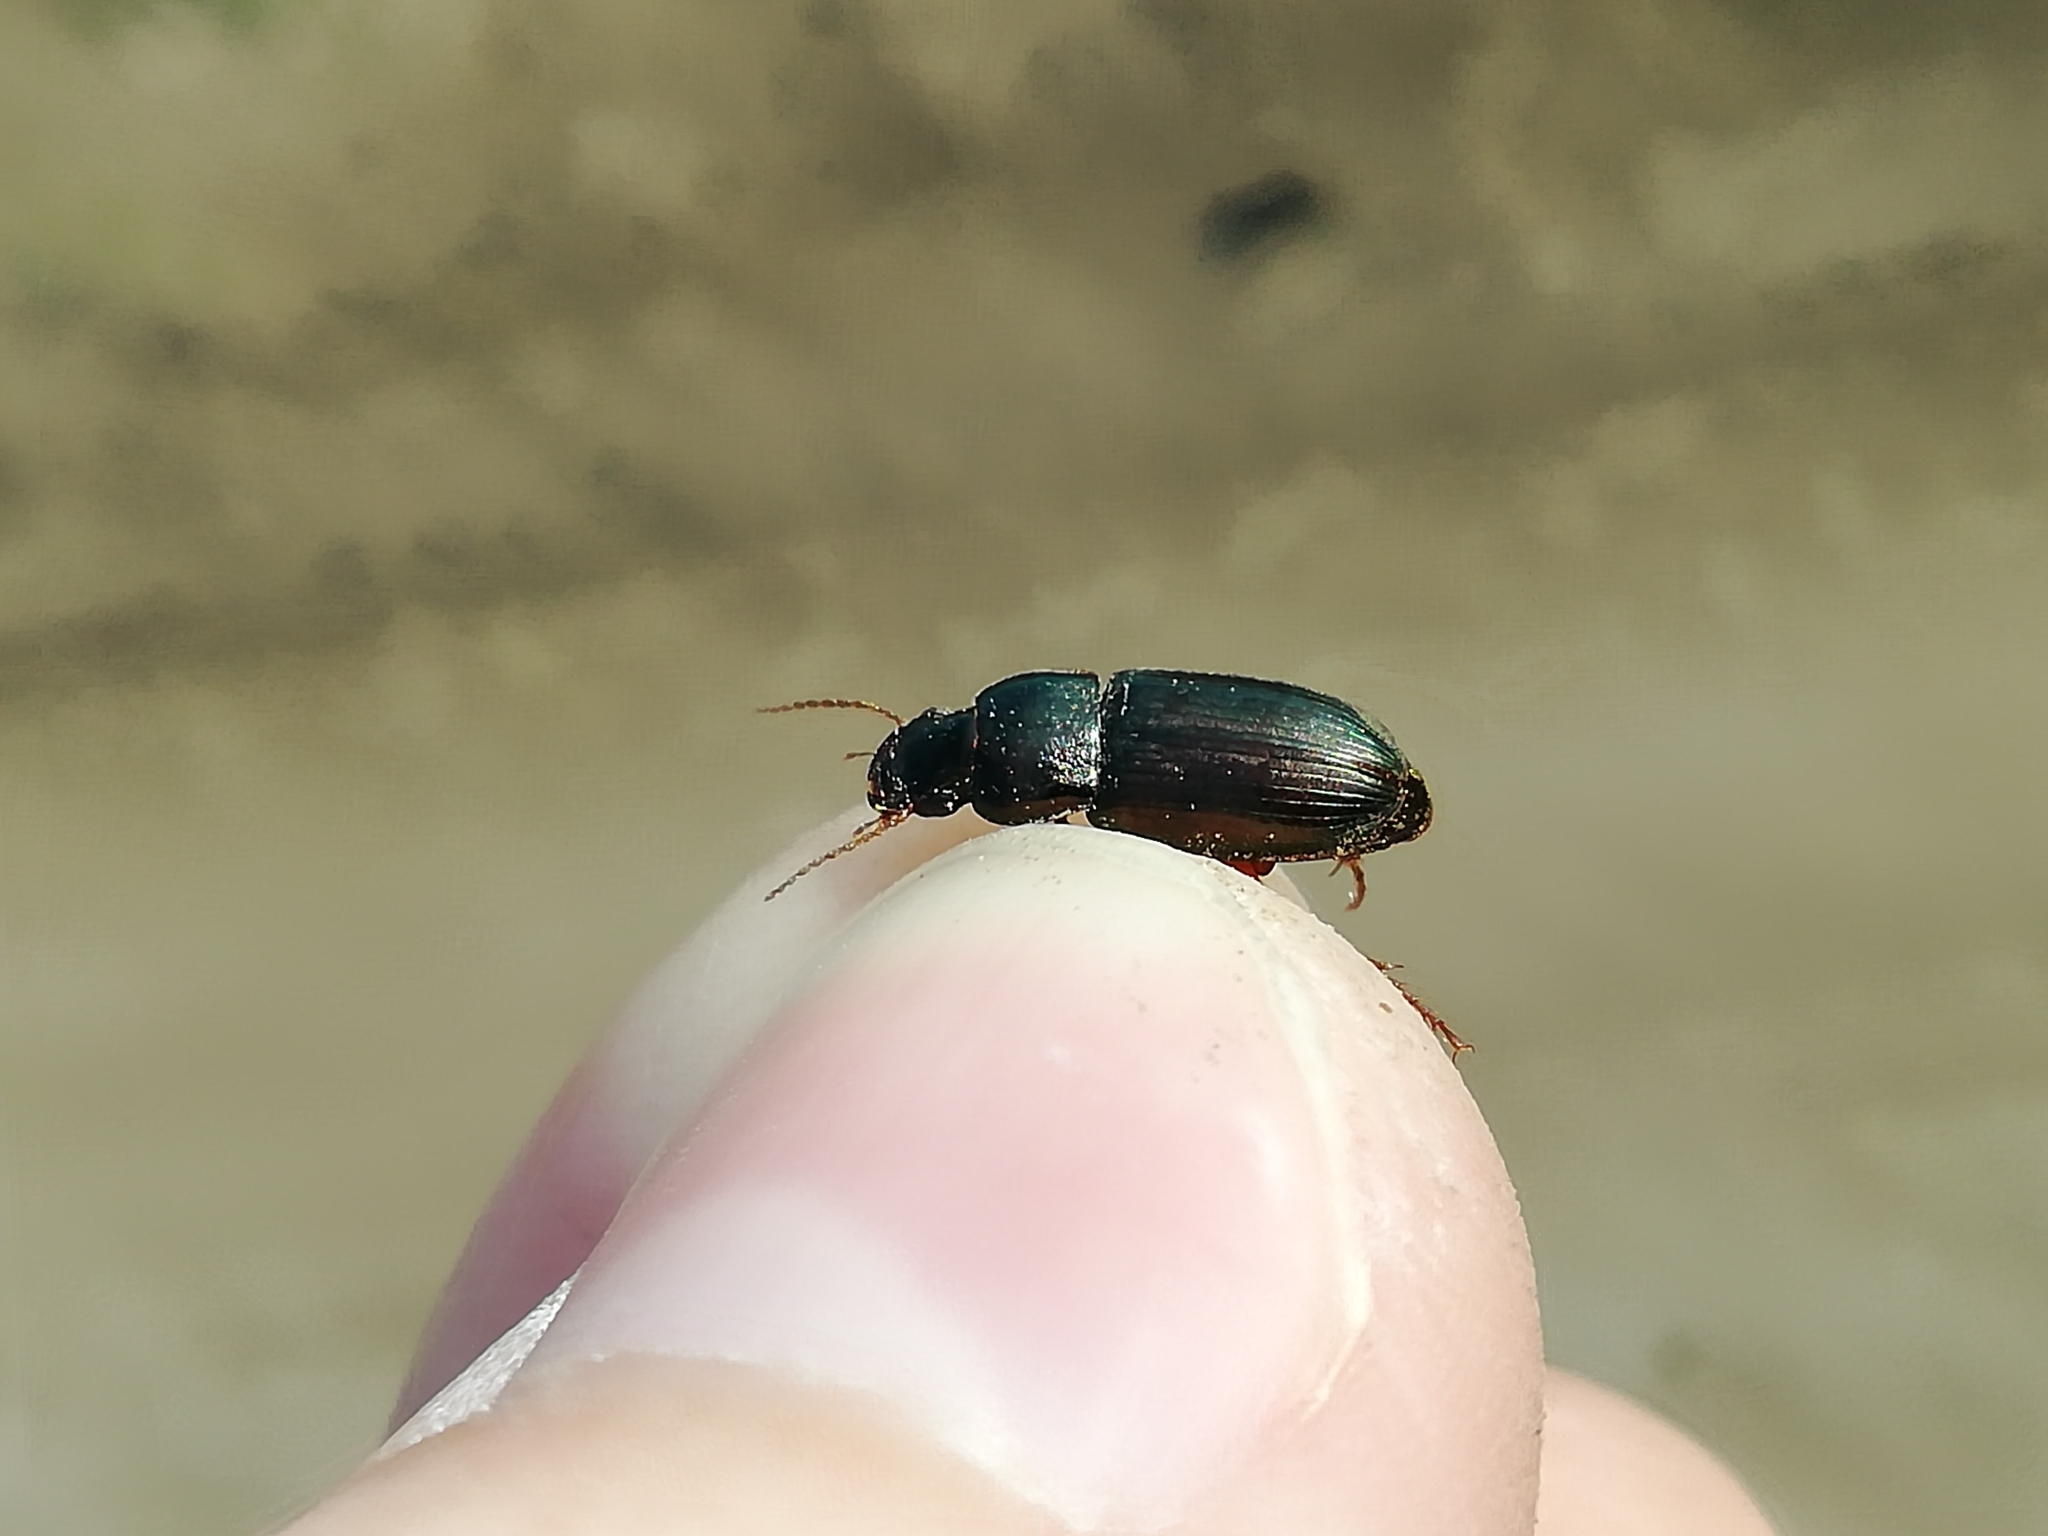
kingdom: Animalia
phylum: Arthropoda
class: Insecta
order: Coleoptera
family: Carabidae
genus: Harpalus
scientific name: Harpalus affinis
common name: Polychrome harp ground beetle
